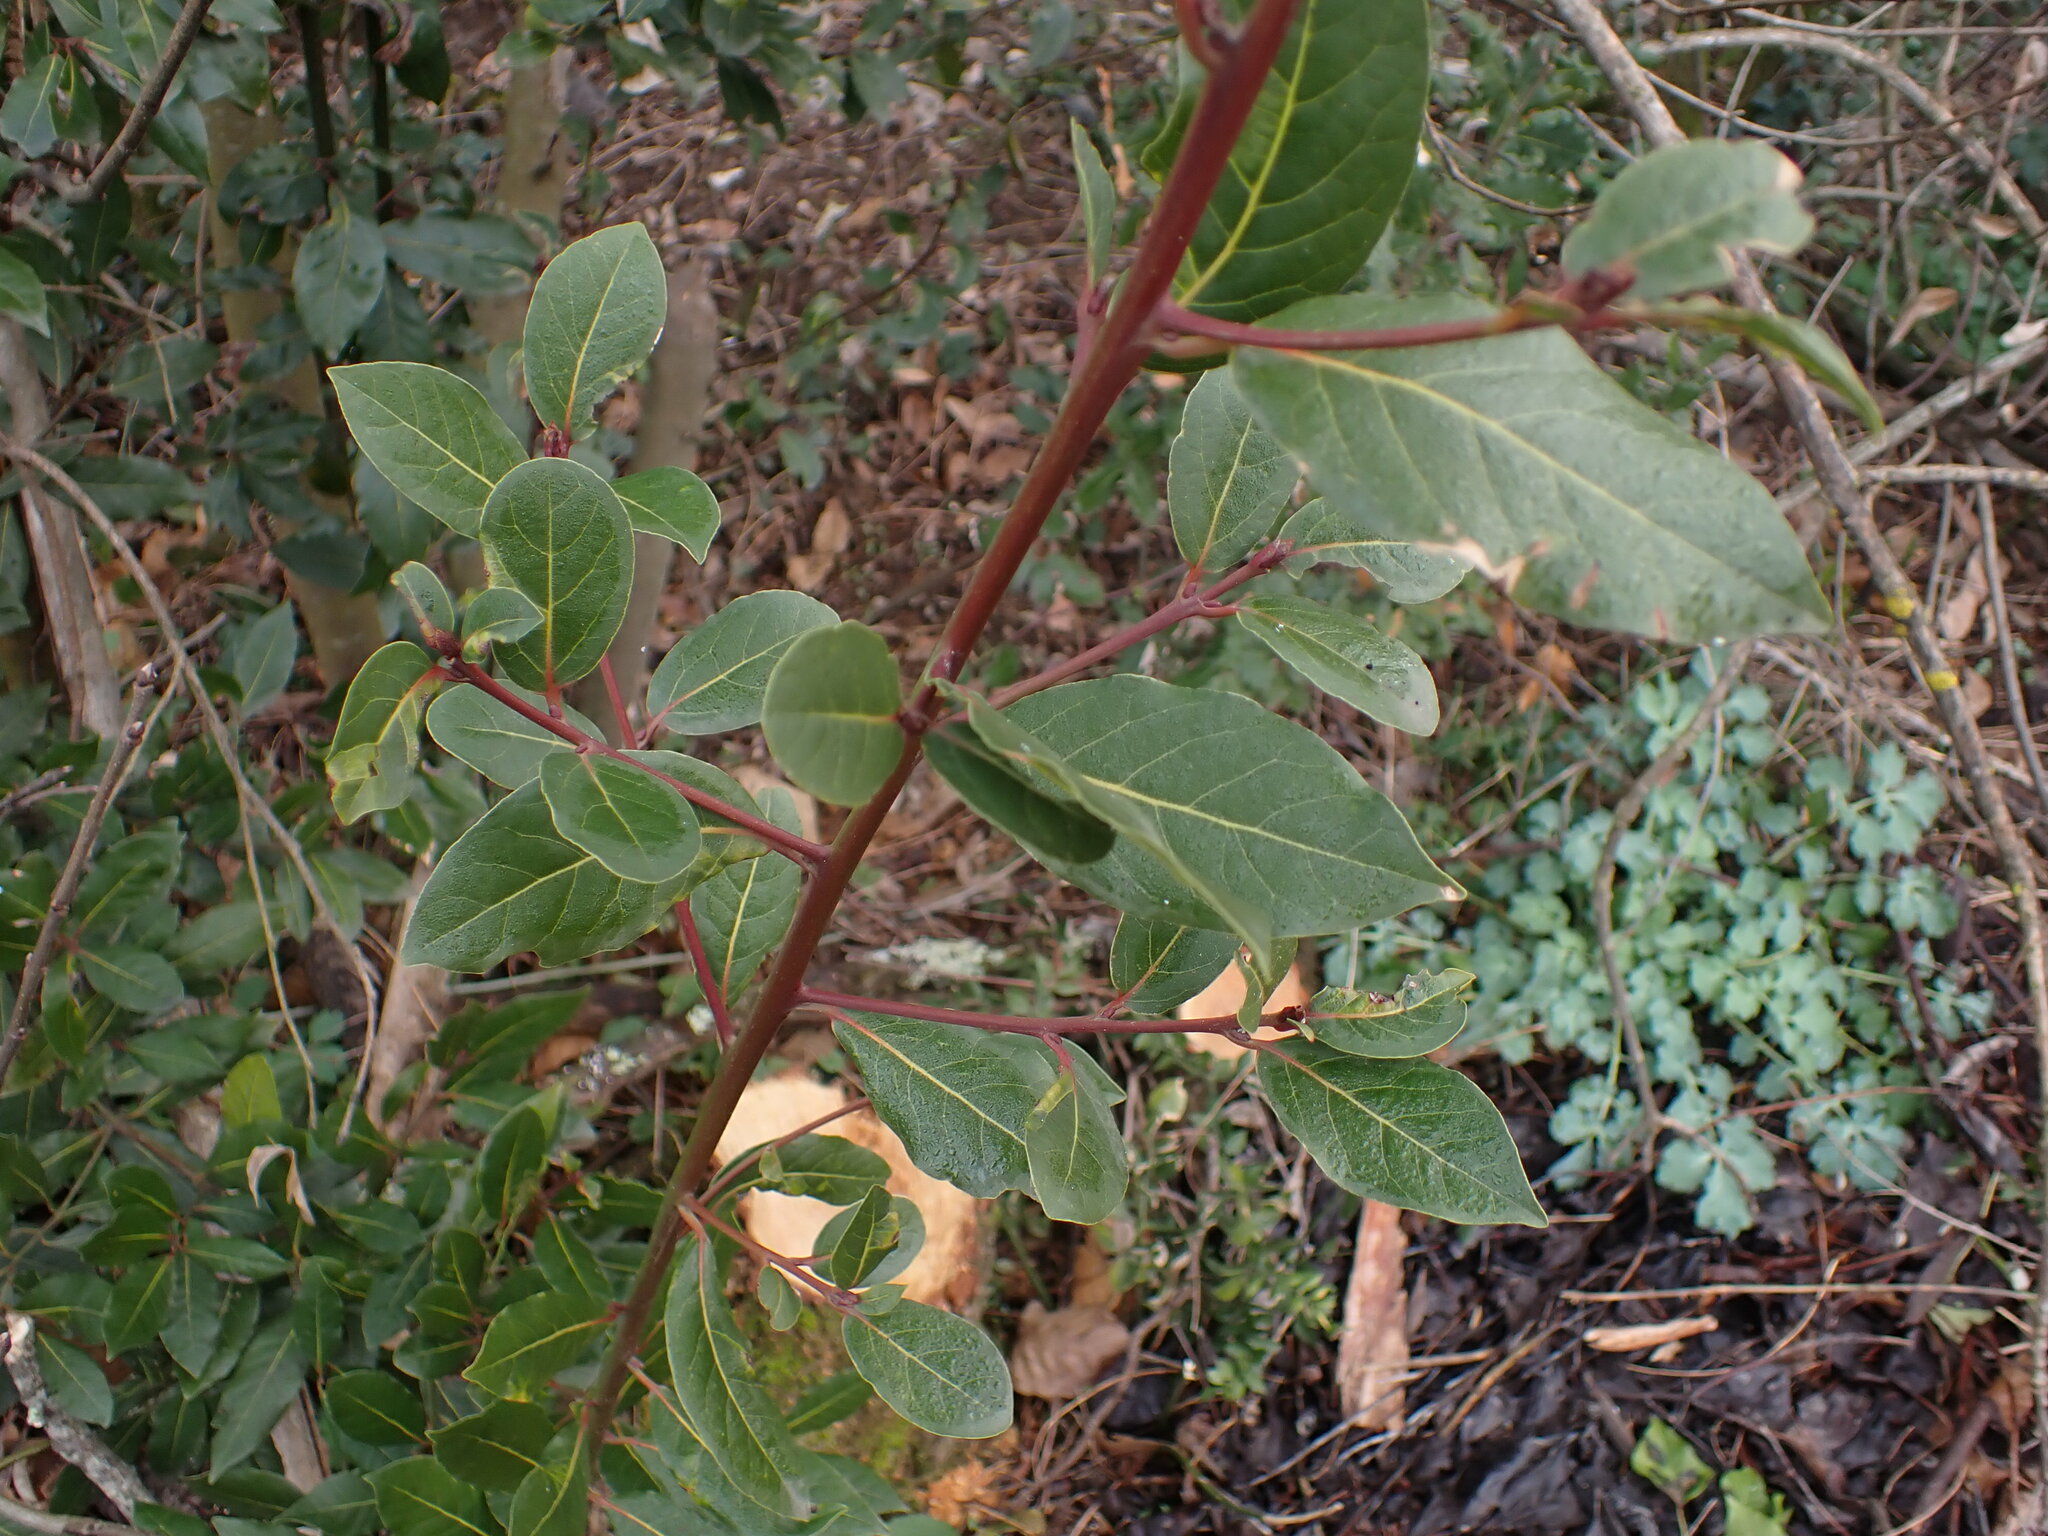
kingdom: Plantae
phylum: Tracheophyta
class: Magnoliopsida
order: Dipsacales
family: Viburnaceae
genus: Viburnum
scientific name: Viburnum tinus
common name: Laurustinus
